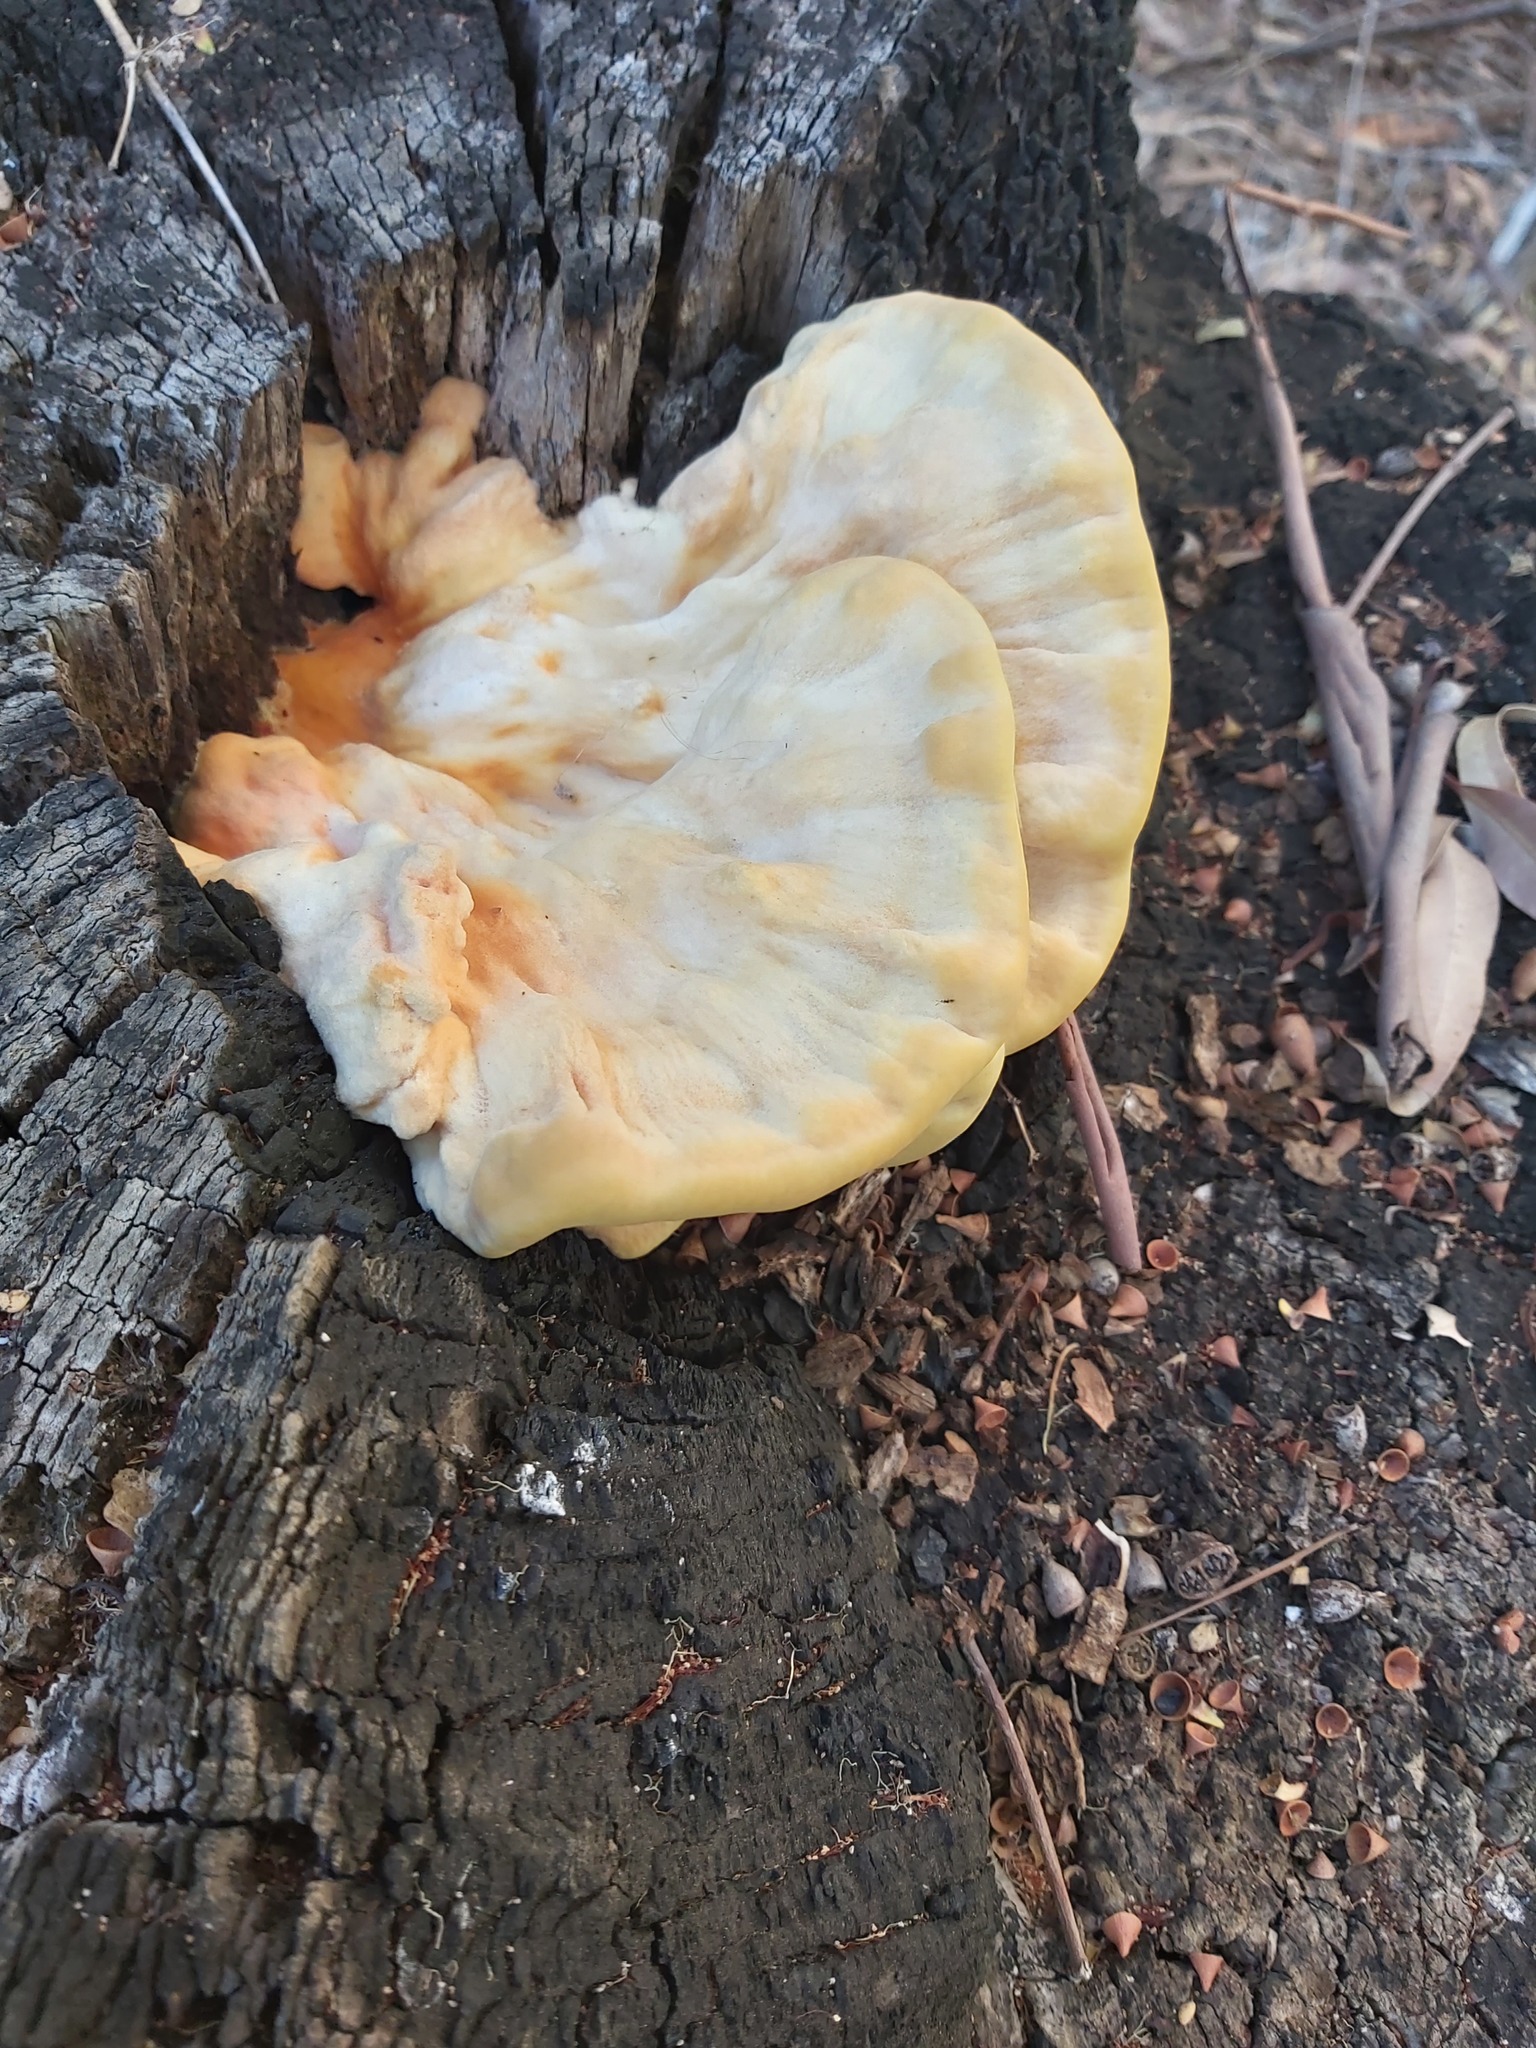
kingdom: Fungi
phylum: Basidiomycota
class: Agaricomycetes
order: Polyporales
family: Laetiporaceae
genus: Laetiporus
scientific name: Laetiporus sulphureus
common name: Chicken of the woods
